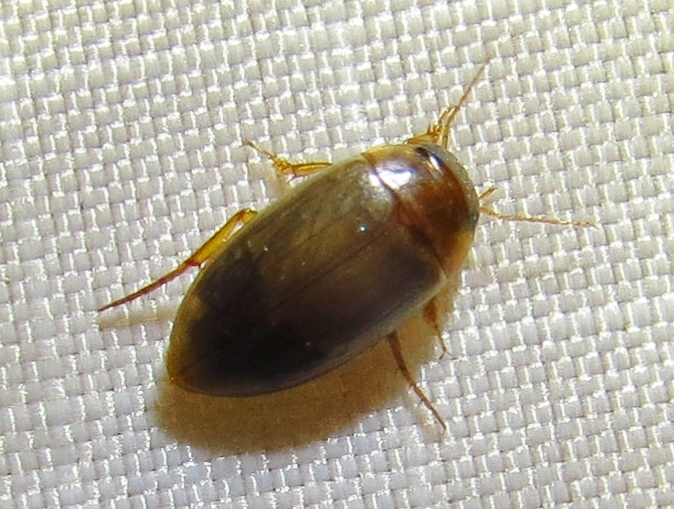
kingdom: Animalia
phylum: Arthropoda
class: Insecta
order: Coleoptera
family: Dytiscidae
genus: Copelatus
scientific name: Copelatus chevrolati
